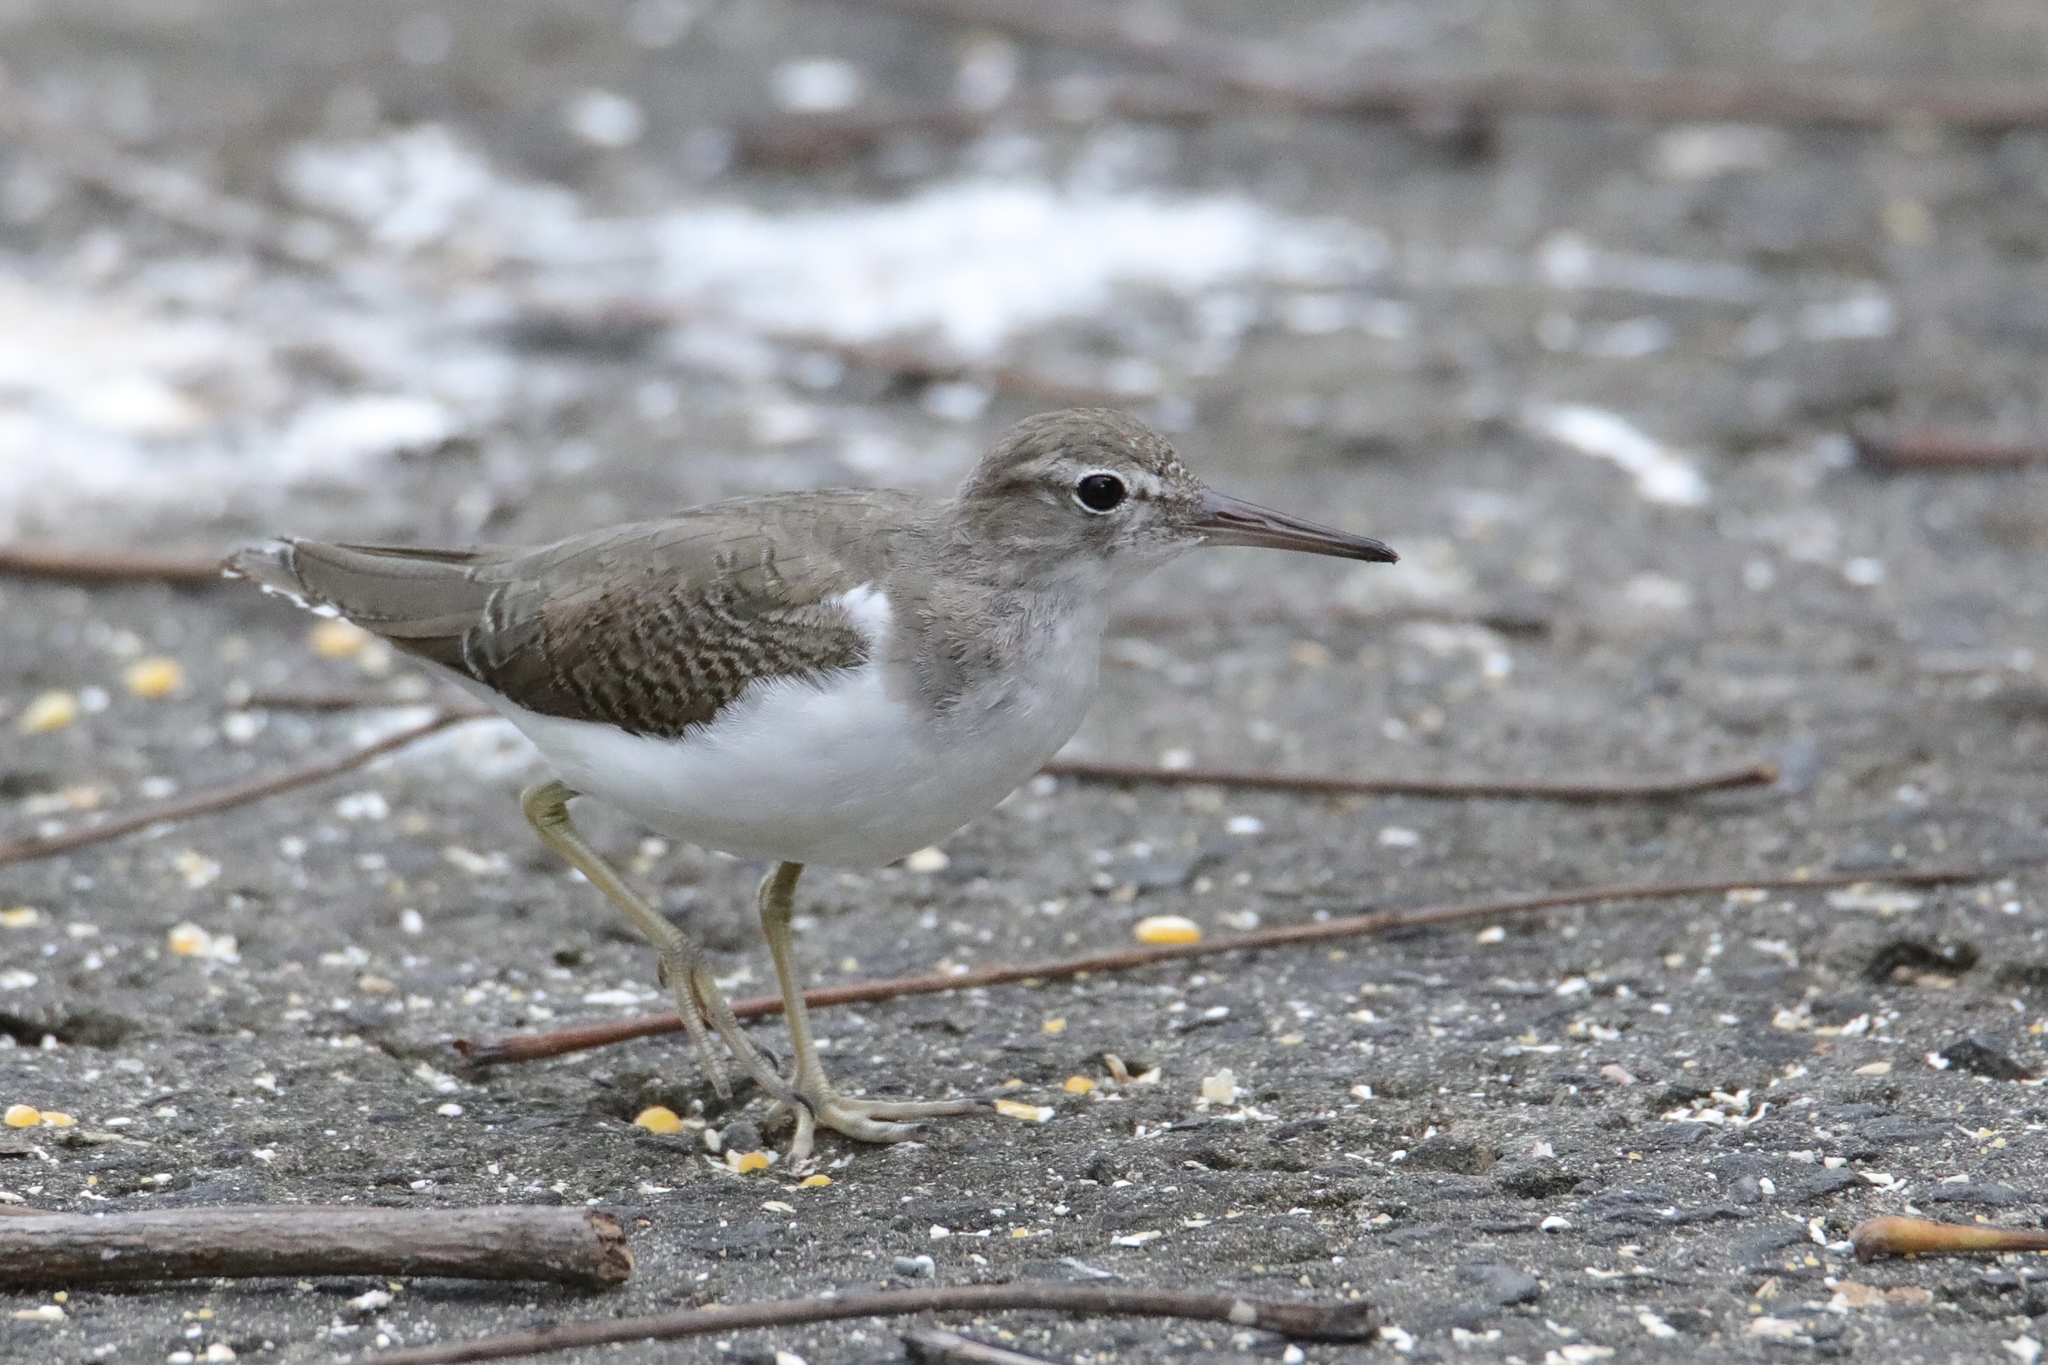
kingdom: Animalia
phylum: Chordata
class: Aves
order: Charadriiformes
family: Scolopacidae
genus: Actitis
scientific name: Actitis macularius
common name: Spotted sandpiper
